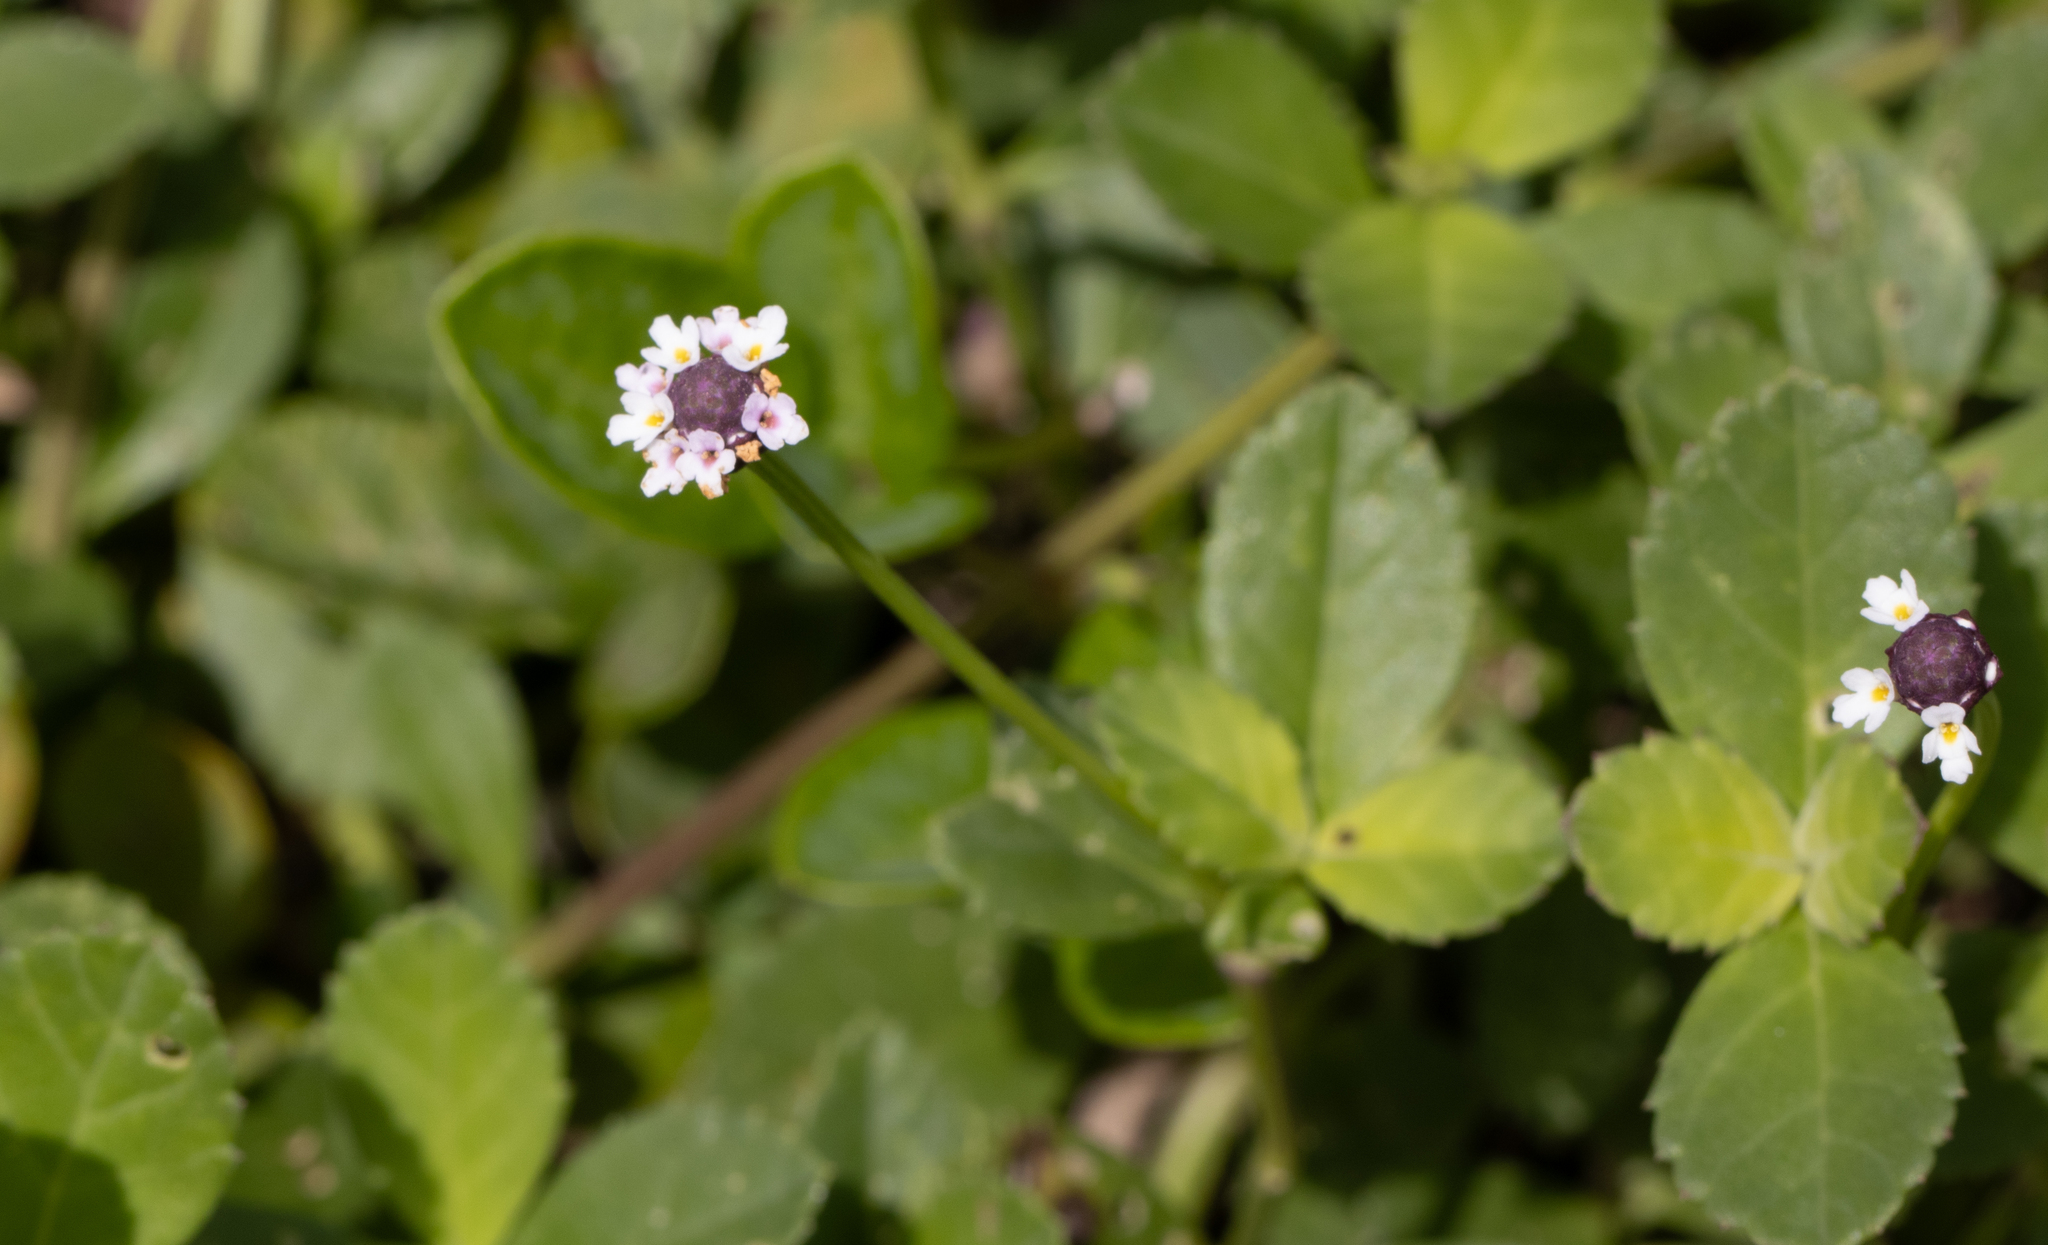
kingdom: Plantae
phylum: Tracheophyta
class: Magnoliopsida
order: Lamiales
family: Verbenaceae
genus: Phyla
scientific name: Phyla nodiflora
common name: Frogfruit
